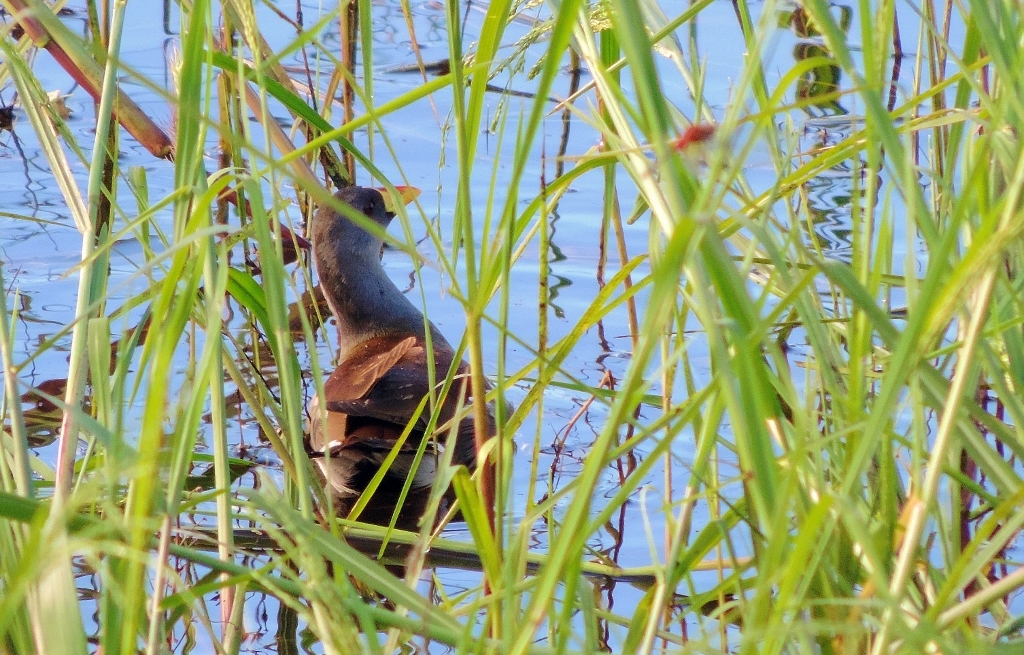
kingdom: Animalia
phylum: Chordata
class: Aves
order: Gruiformes
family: Rallidae
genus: Gallinula
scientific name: Gallinula angulata
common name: Lesser moorhen
